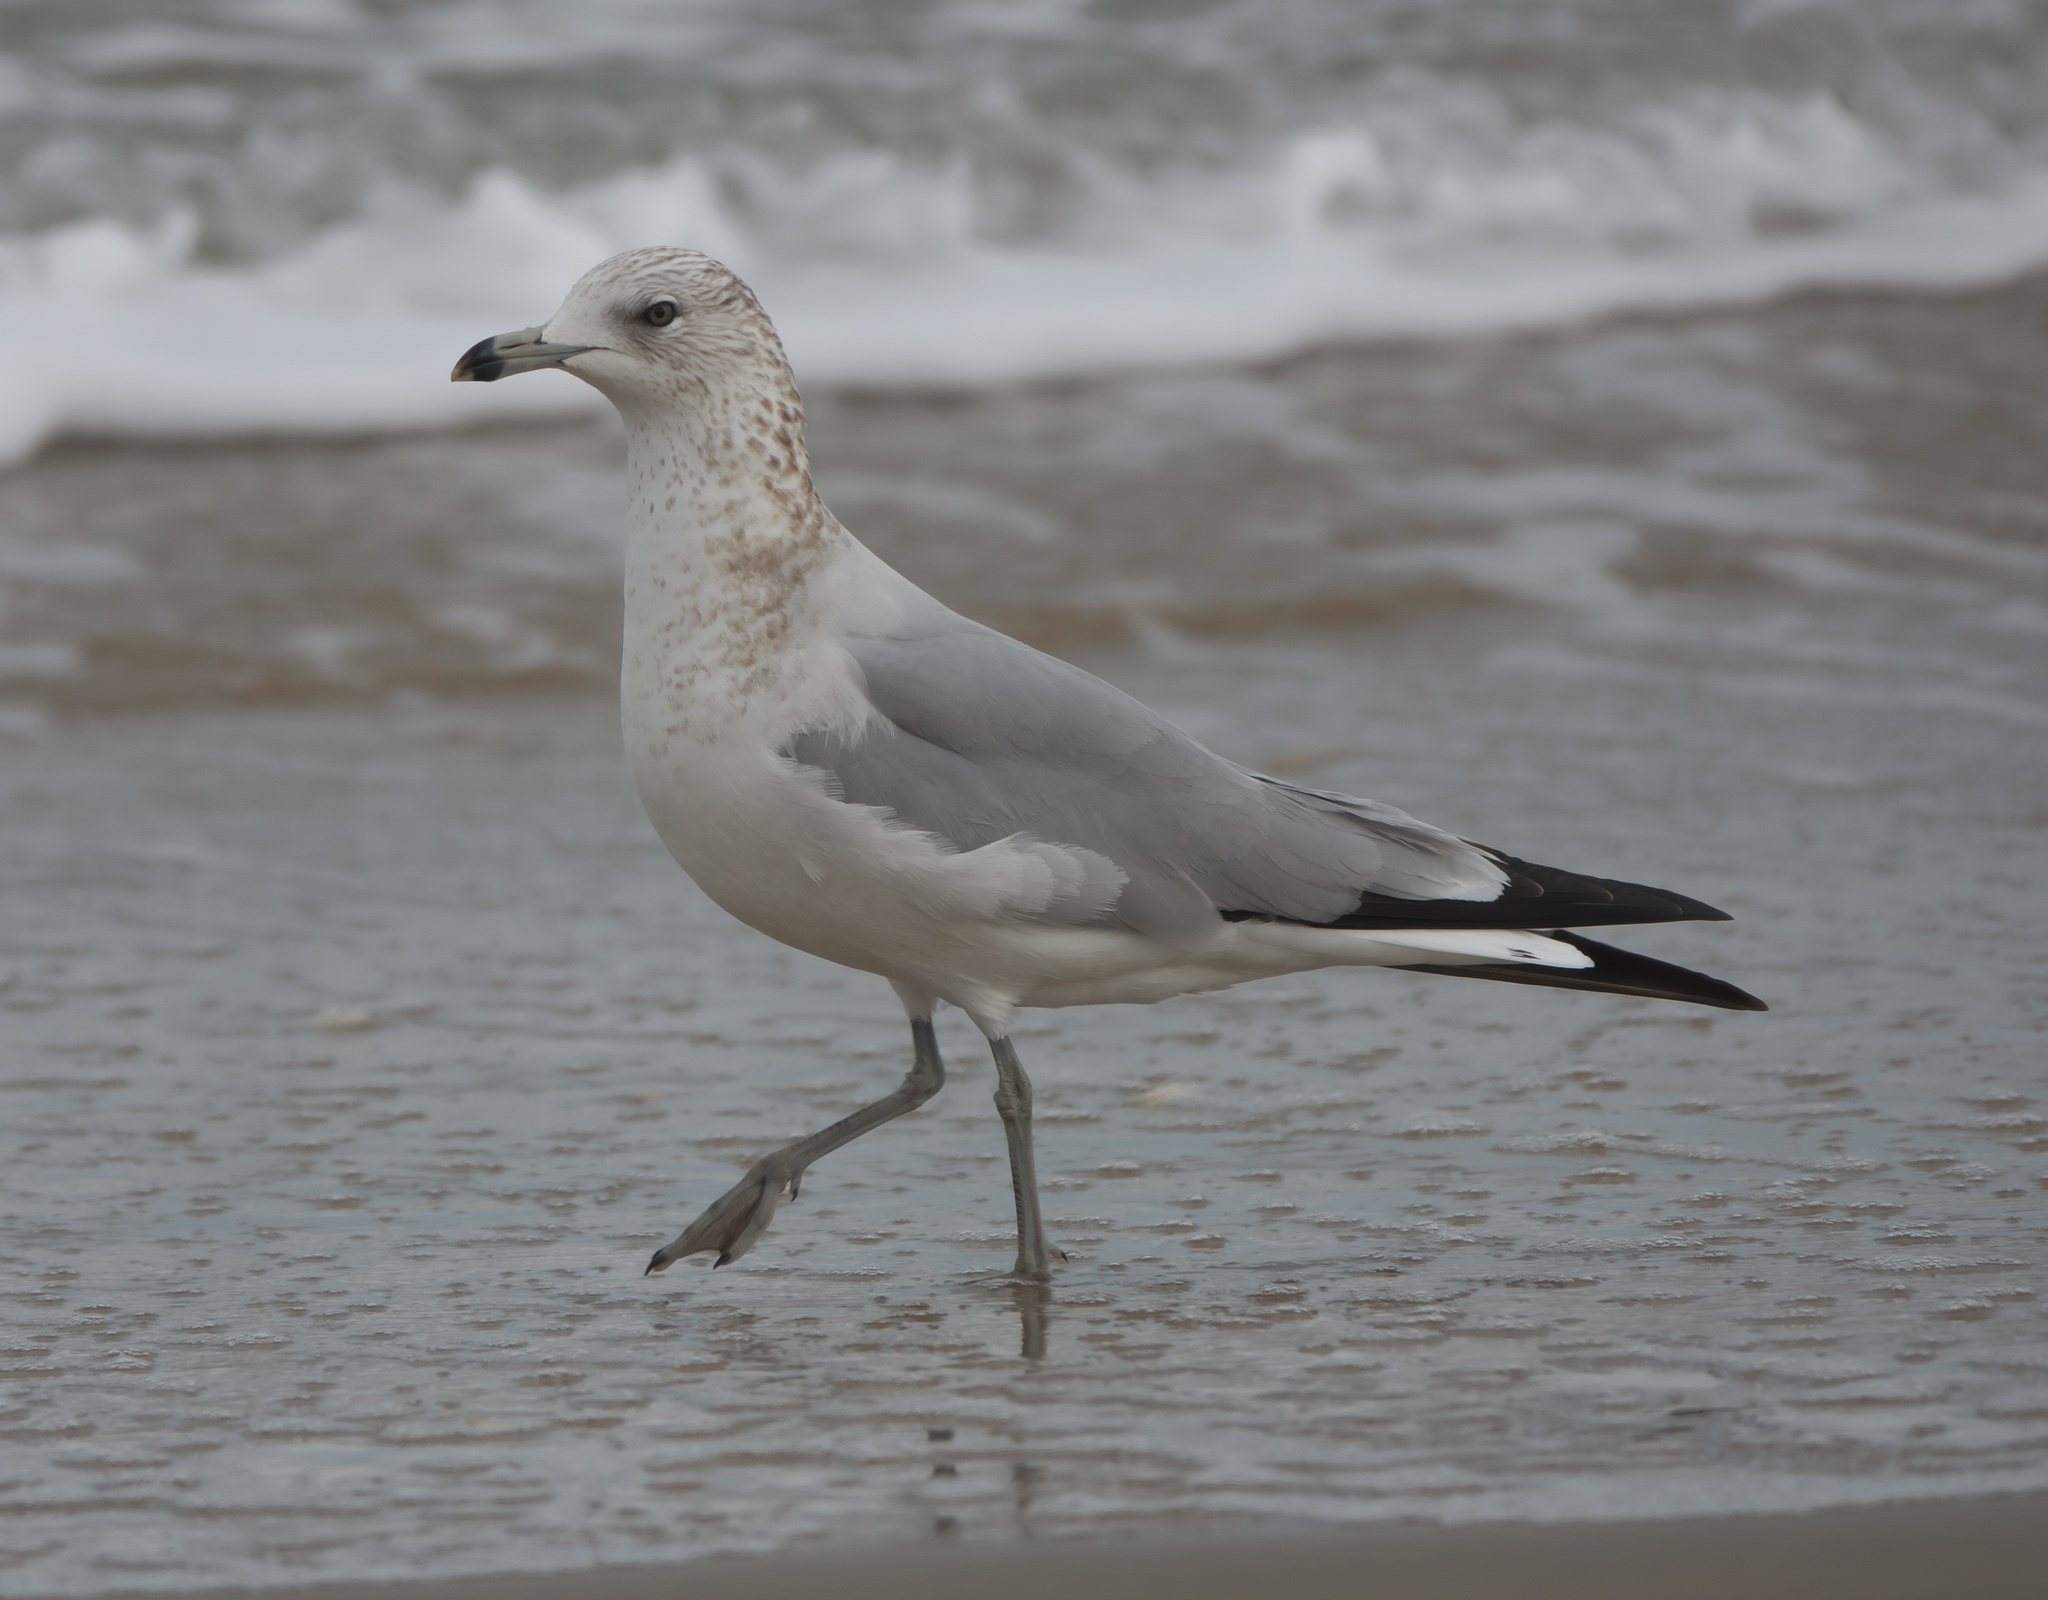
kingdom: Animalia
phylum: Chordata
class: Aves
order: Charadriiformes
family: Laridae
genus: Larus
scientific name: Larus delawarensis
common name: Ring-billed gull
